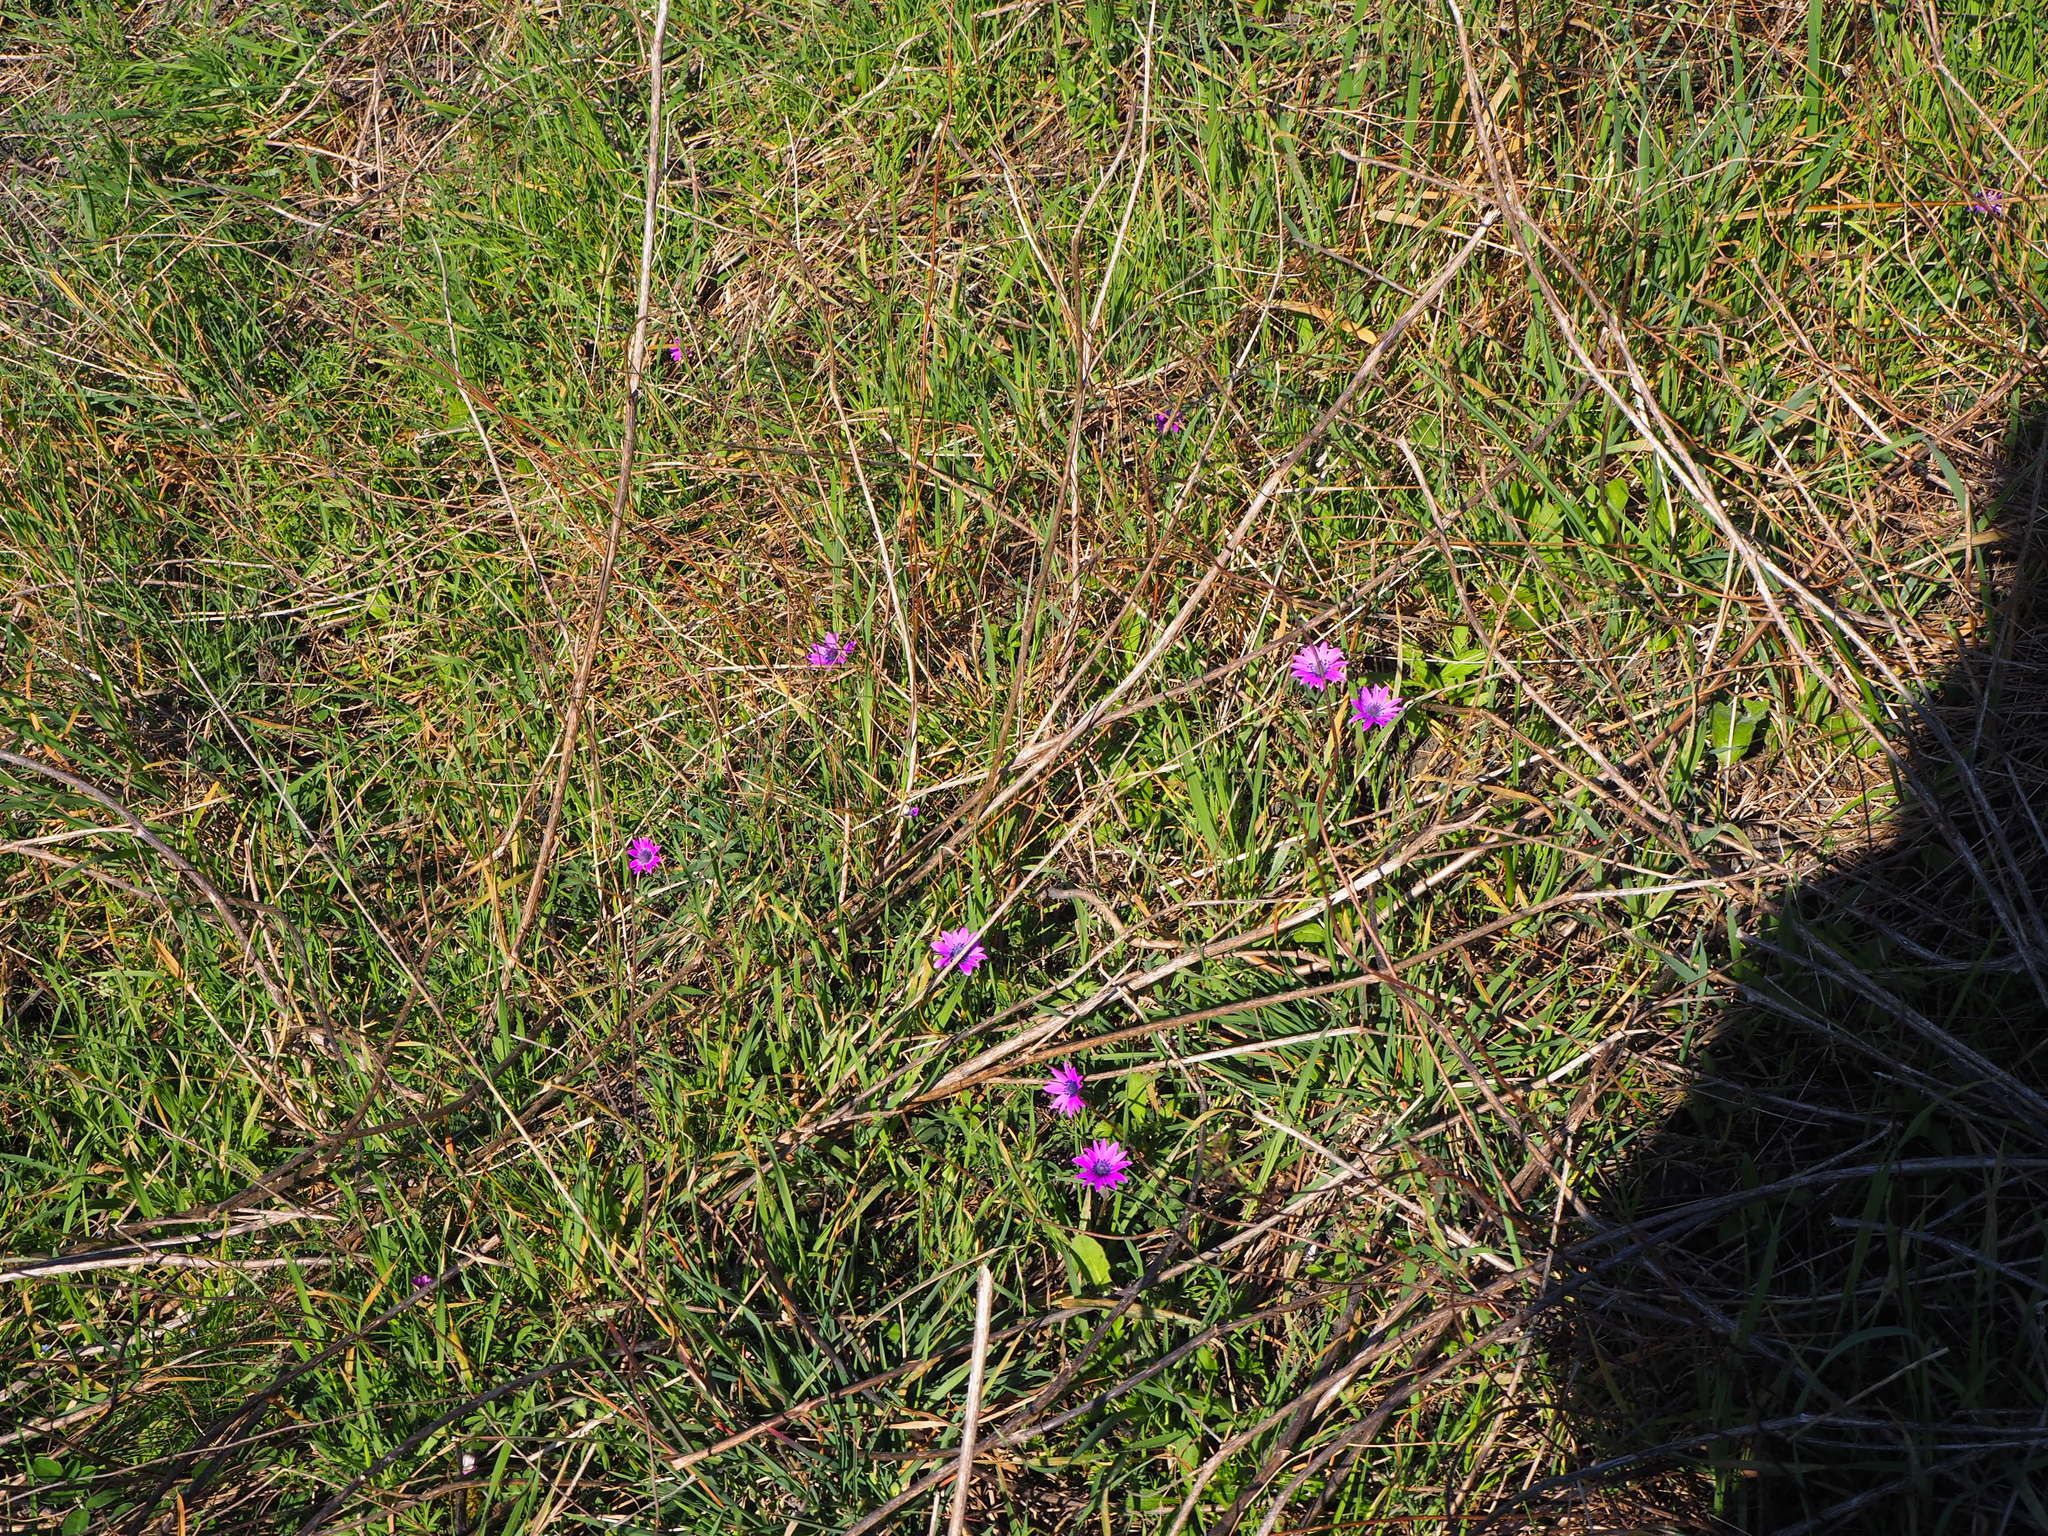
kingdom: Plantae
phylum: Tracheophyta
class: Magnoliopsida
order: Ranunculales
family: Ranunculaceae
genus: Anemone
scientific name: Anemone hortensis
